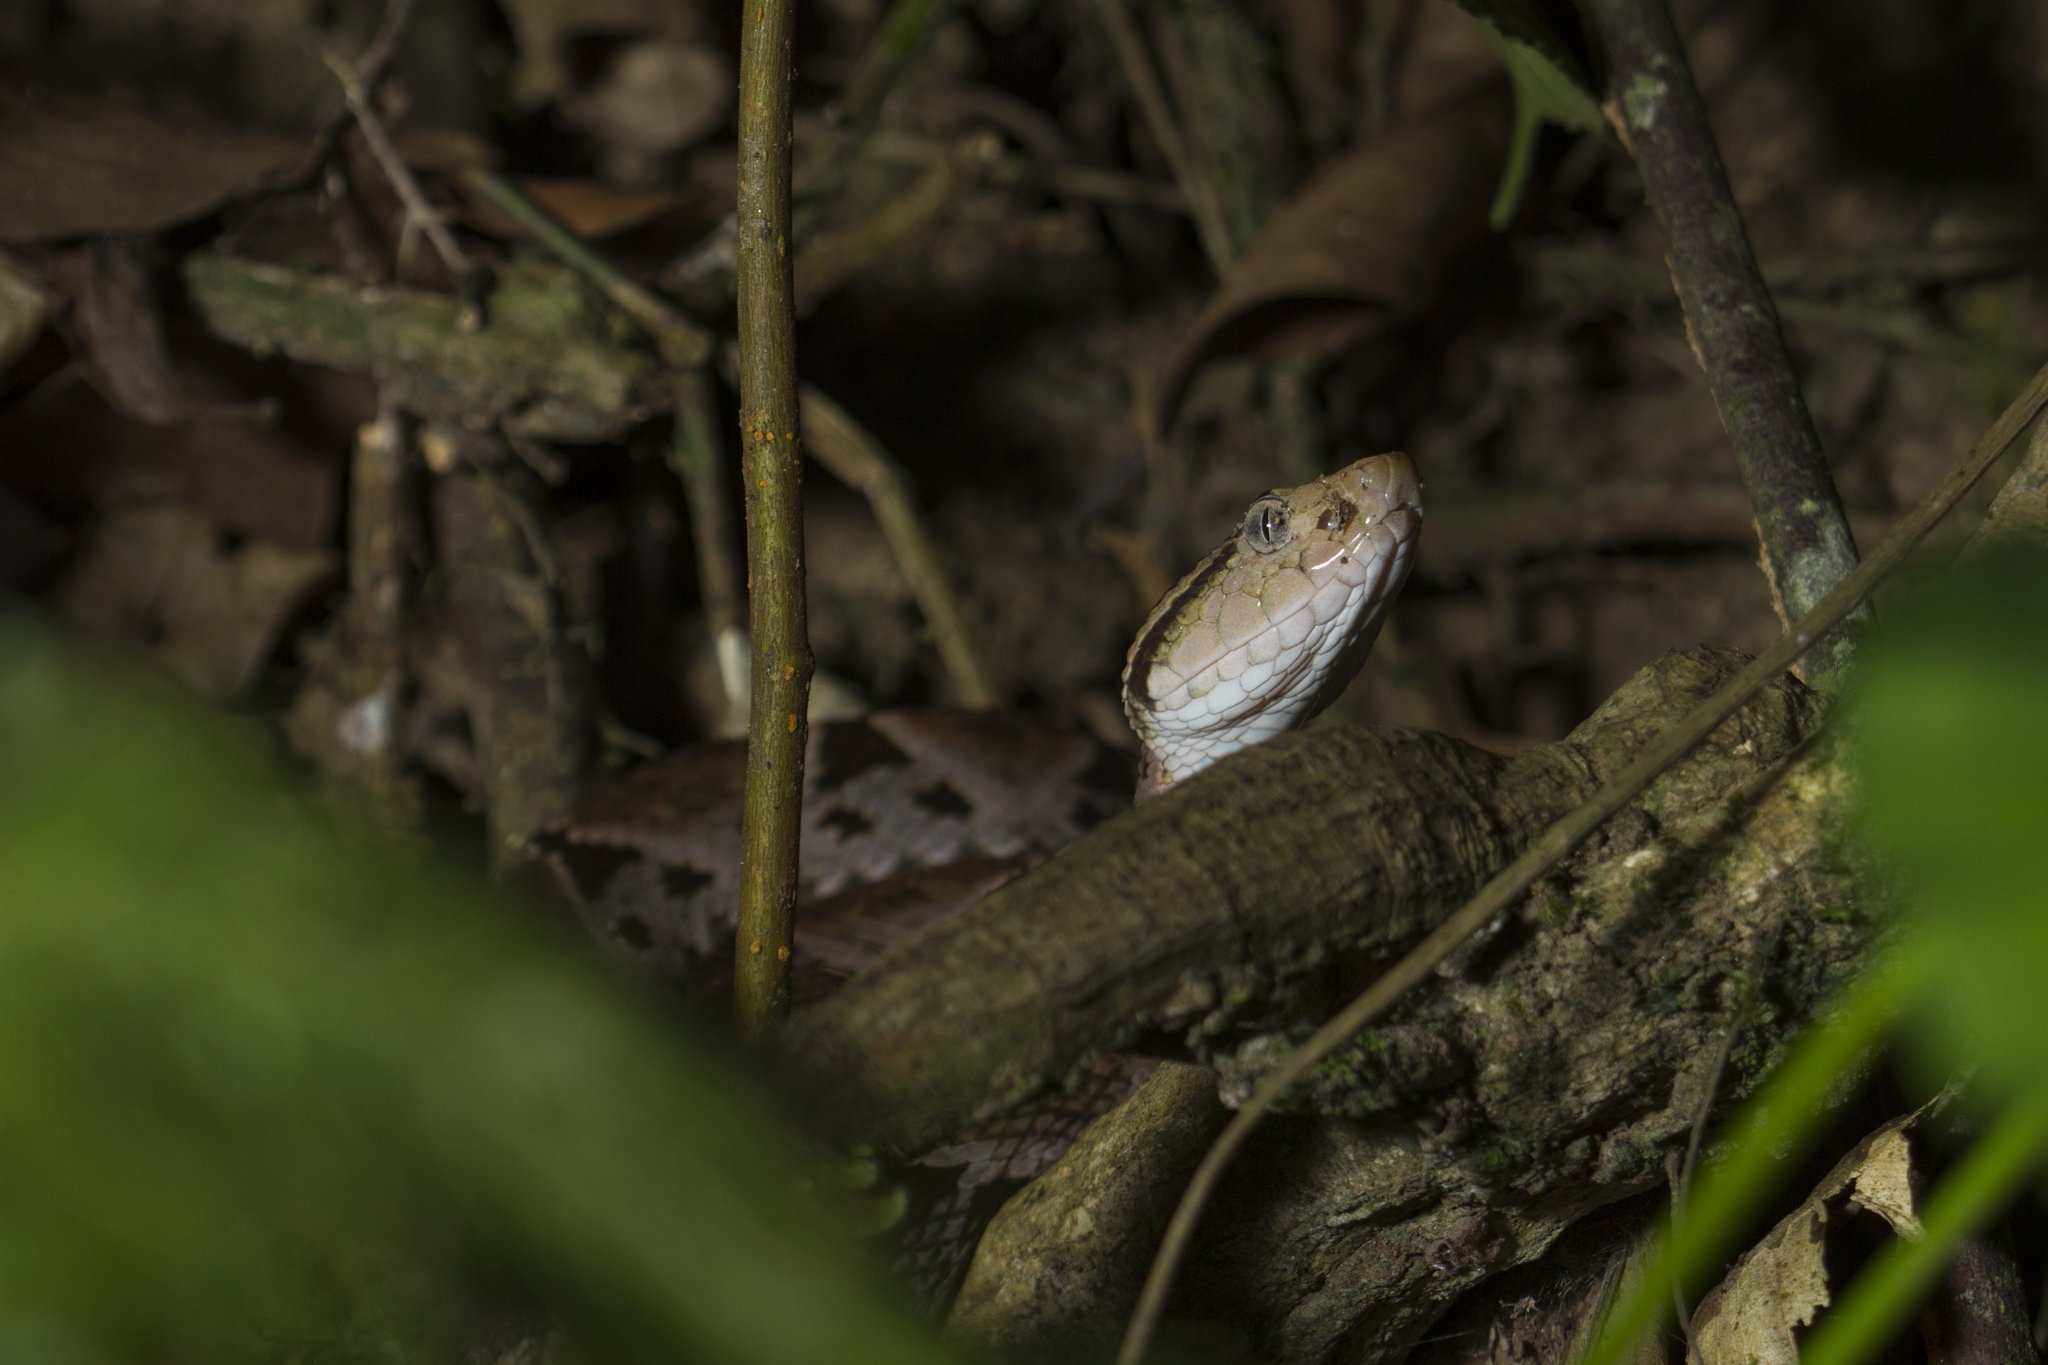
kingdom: Animalia
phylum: Chordata
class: Squamata
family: Viperidae
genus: Bothrops
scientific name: Bothrops asper
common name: Terciopelo
